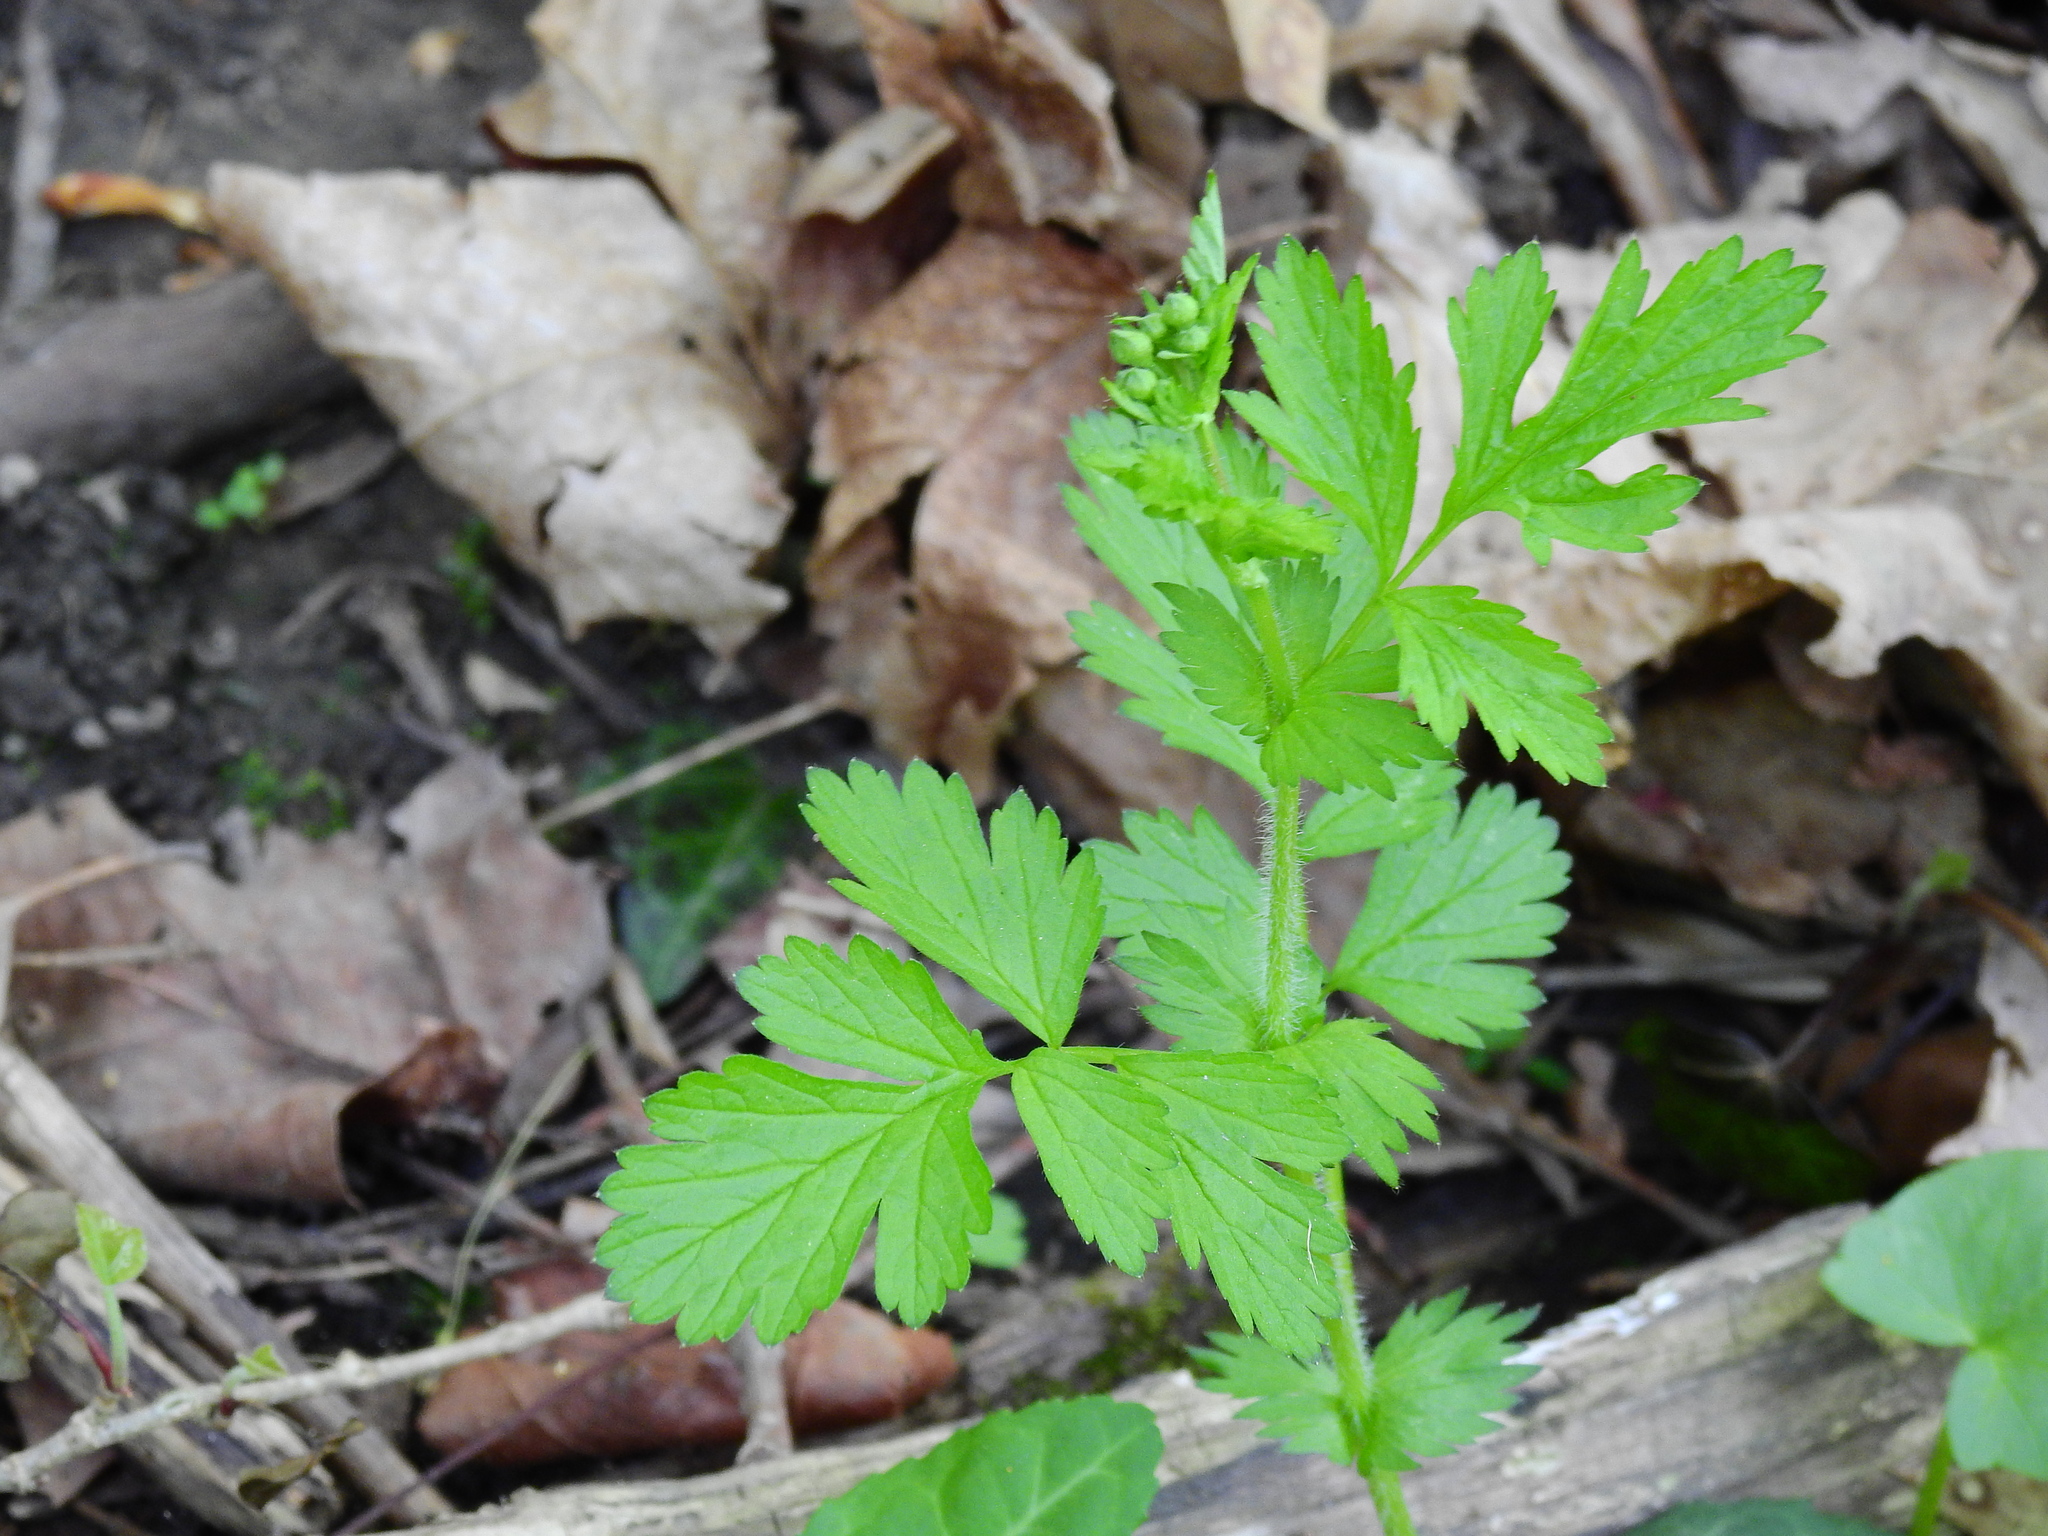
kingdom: Plantae
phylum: Tracheophyta
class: Magnoliopsida
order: Rosales
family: Rosaceae
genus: Geum
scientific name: Geum vernum
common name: Spring avens
